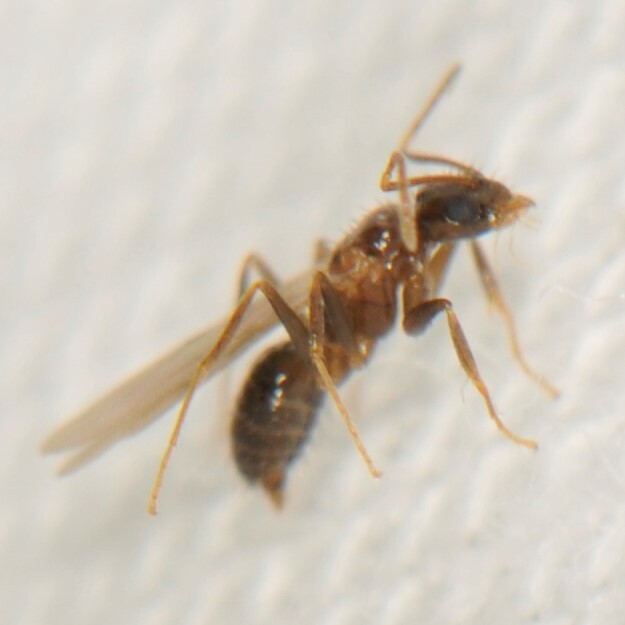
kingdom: Animalia
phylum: Arthropoda
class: Insecta
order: Hymenoptera
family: Formicidae
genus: Nylanderia
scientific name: Nylanderia
